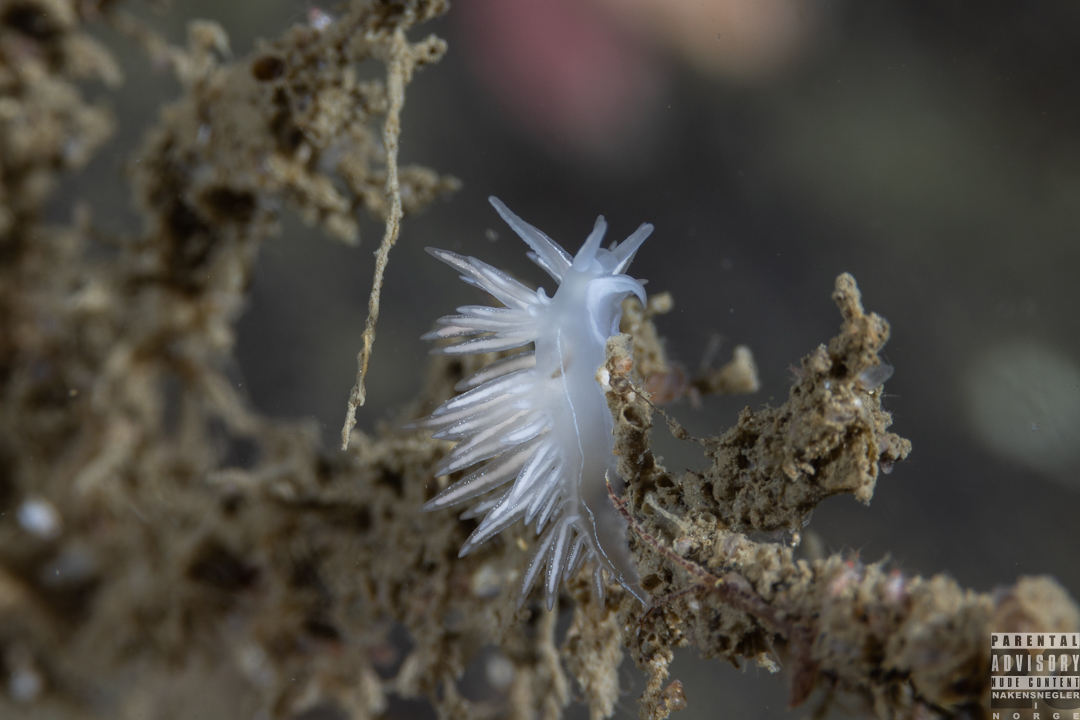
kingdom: Animalia
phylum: Mollusca
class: Gastropoda
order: Nudibranchia
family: Coryphellidae
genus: Coryphella
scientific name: Coryphella chriskaugei
